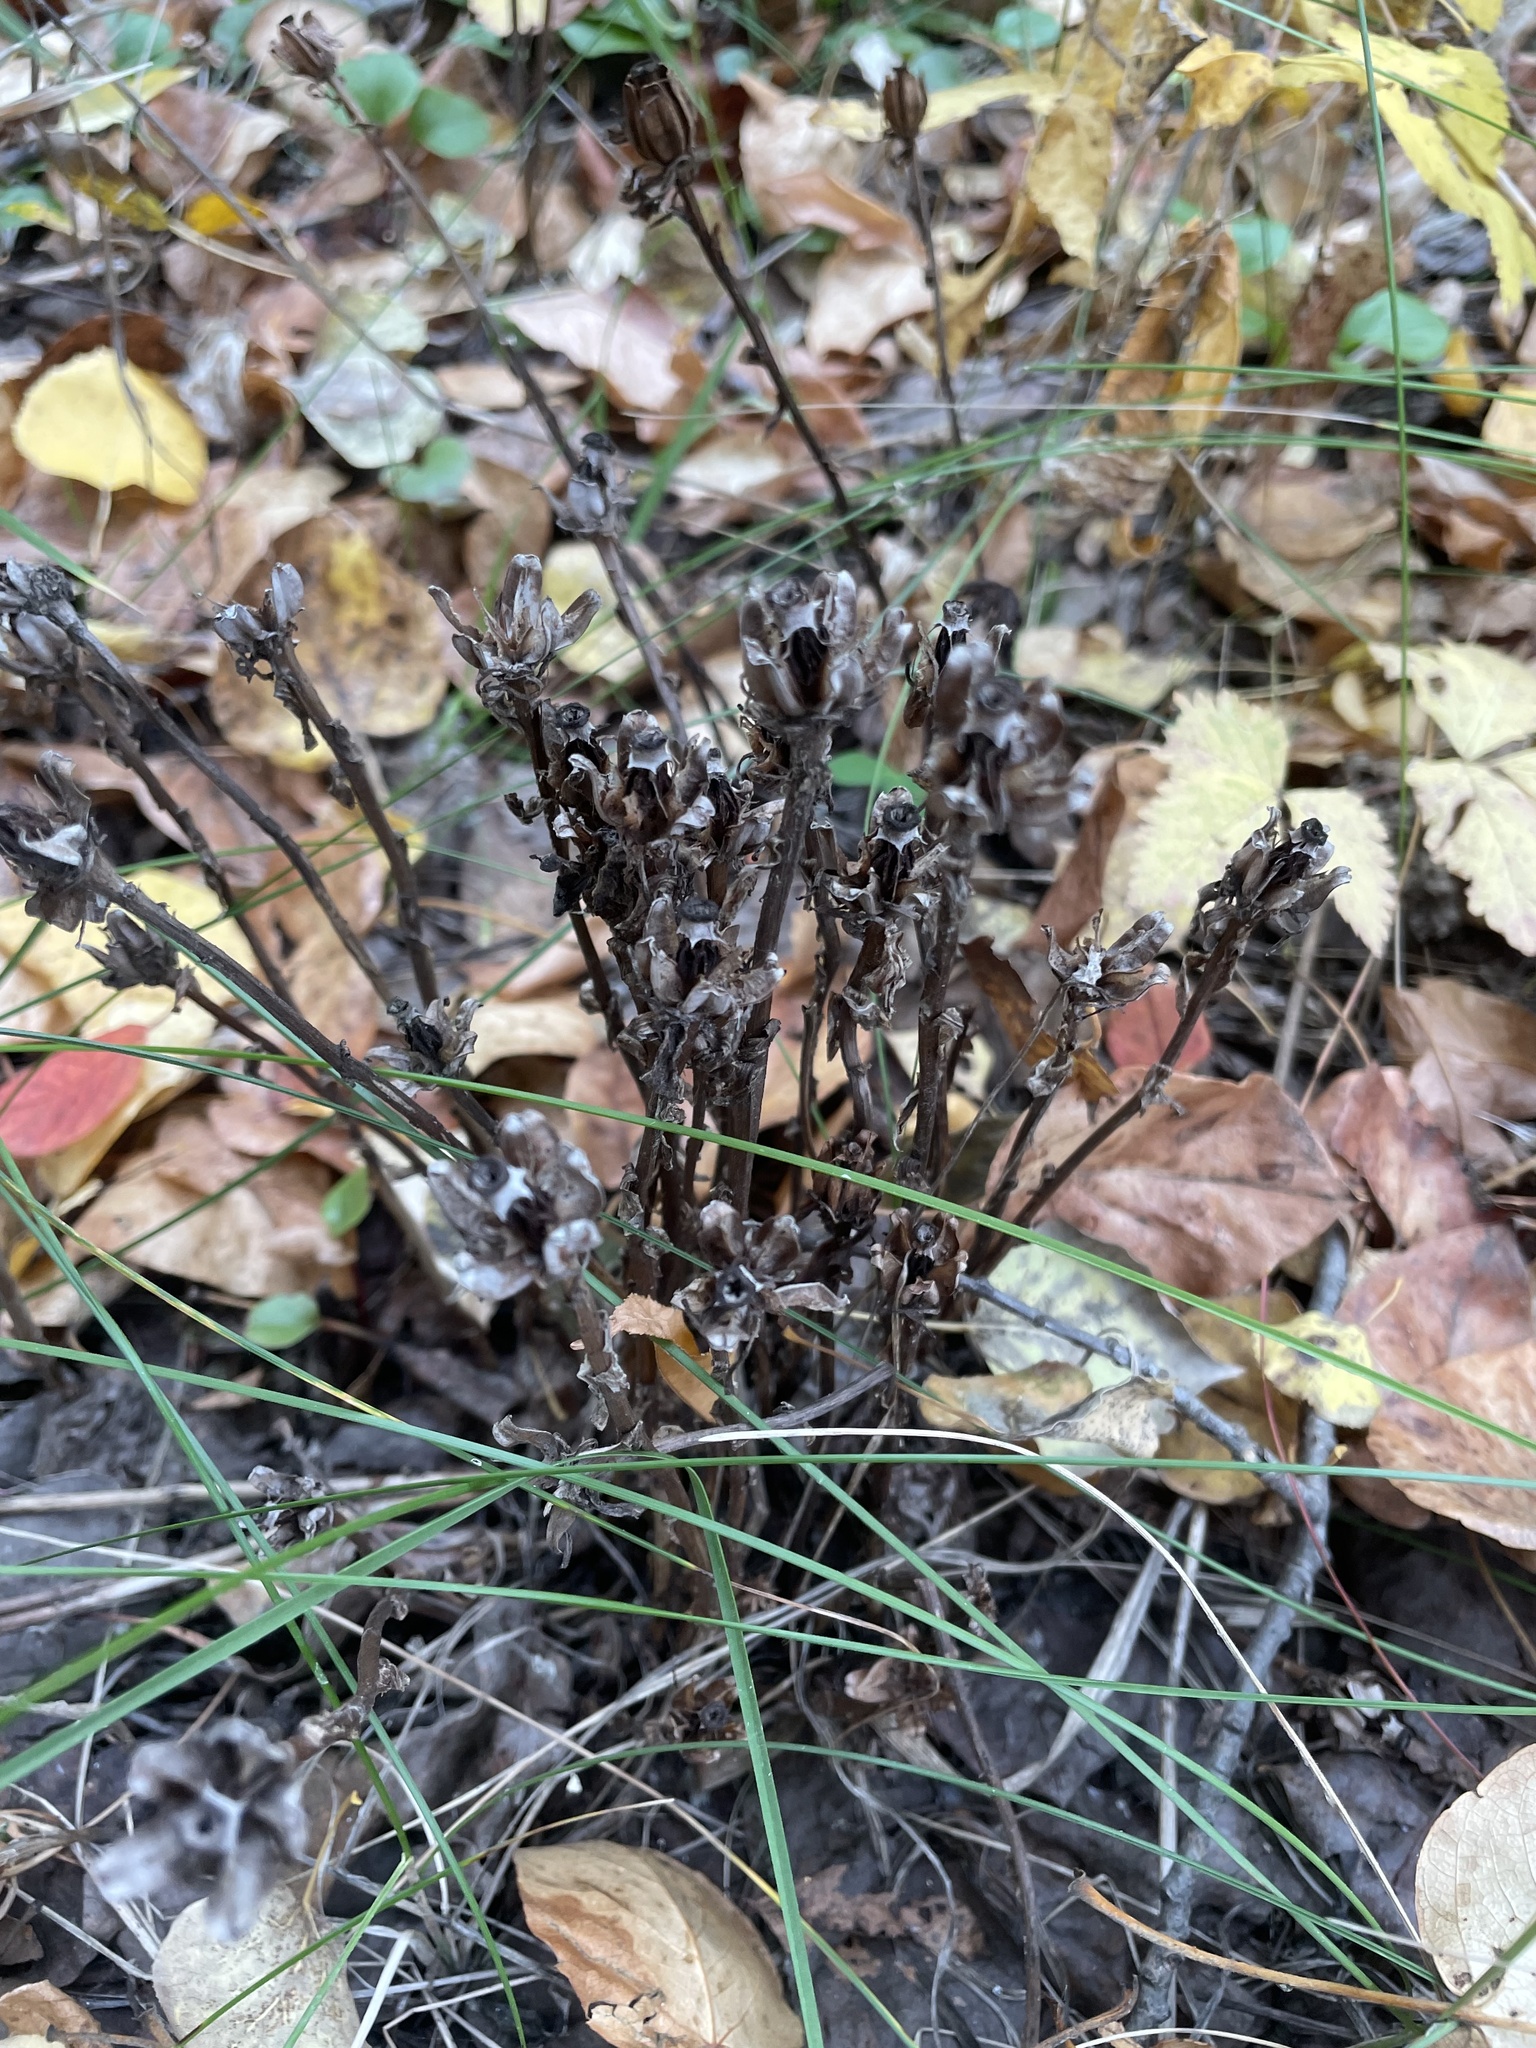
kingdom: Plantae
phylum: Tracheophyta
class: Magnoliopsida
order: Ericales
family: Ericaceae
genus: Monotropa
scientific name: Monotropa uniflora
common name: Convulsion root
